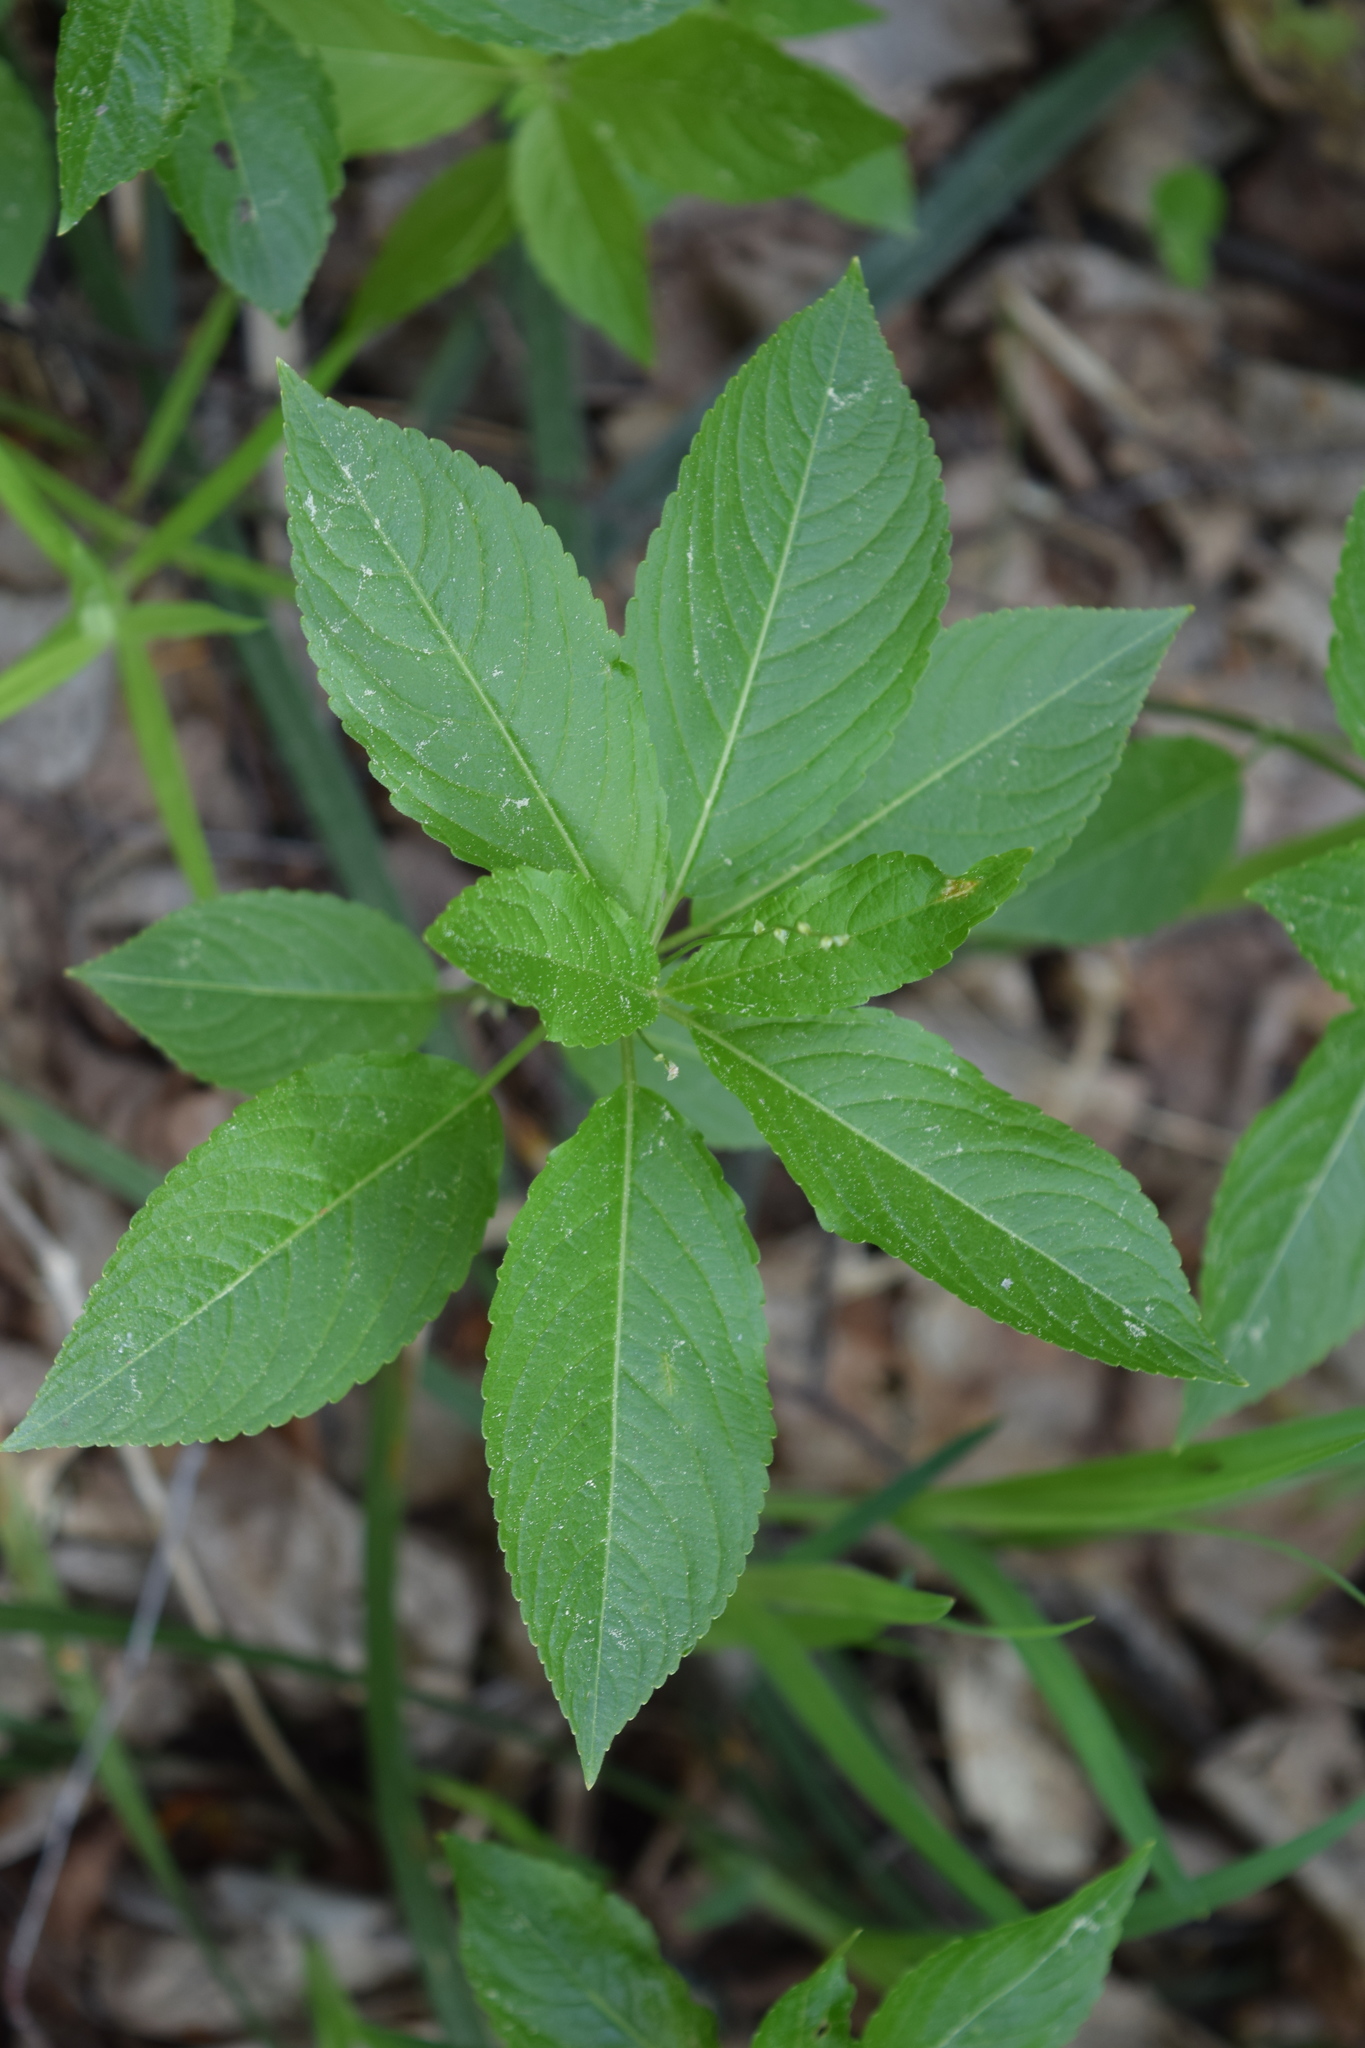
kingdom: Plantae
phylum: Tracheophyta
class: Magnoliopsida
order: Malpighiales
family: Euphorbiaceae
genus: Mercurialis
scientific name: Mercurialis perennis
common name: Dog mercury
